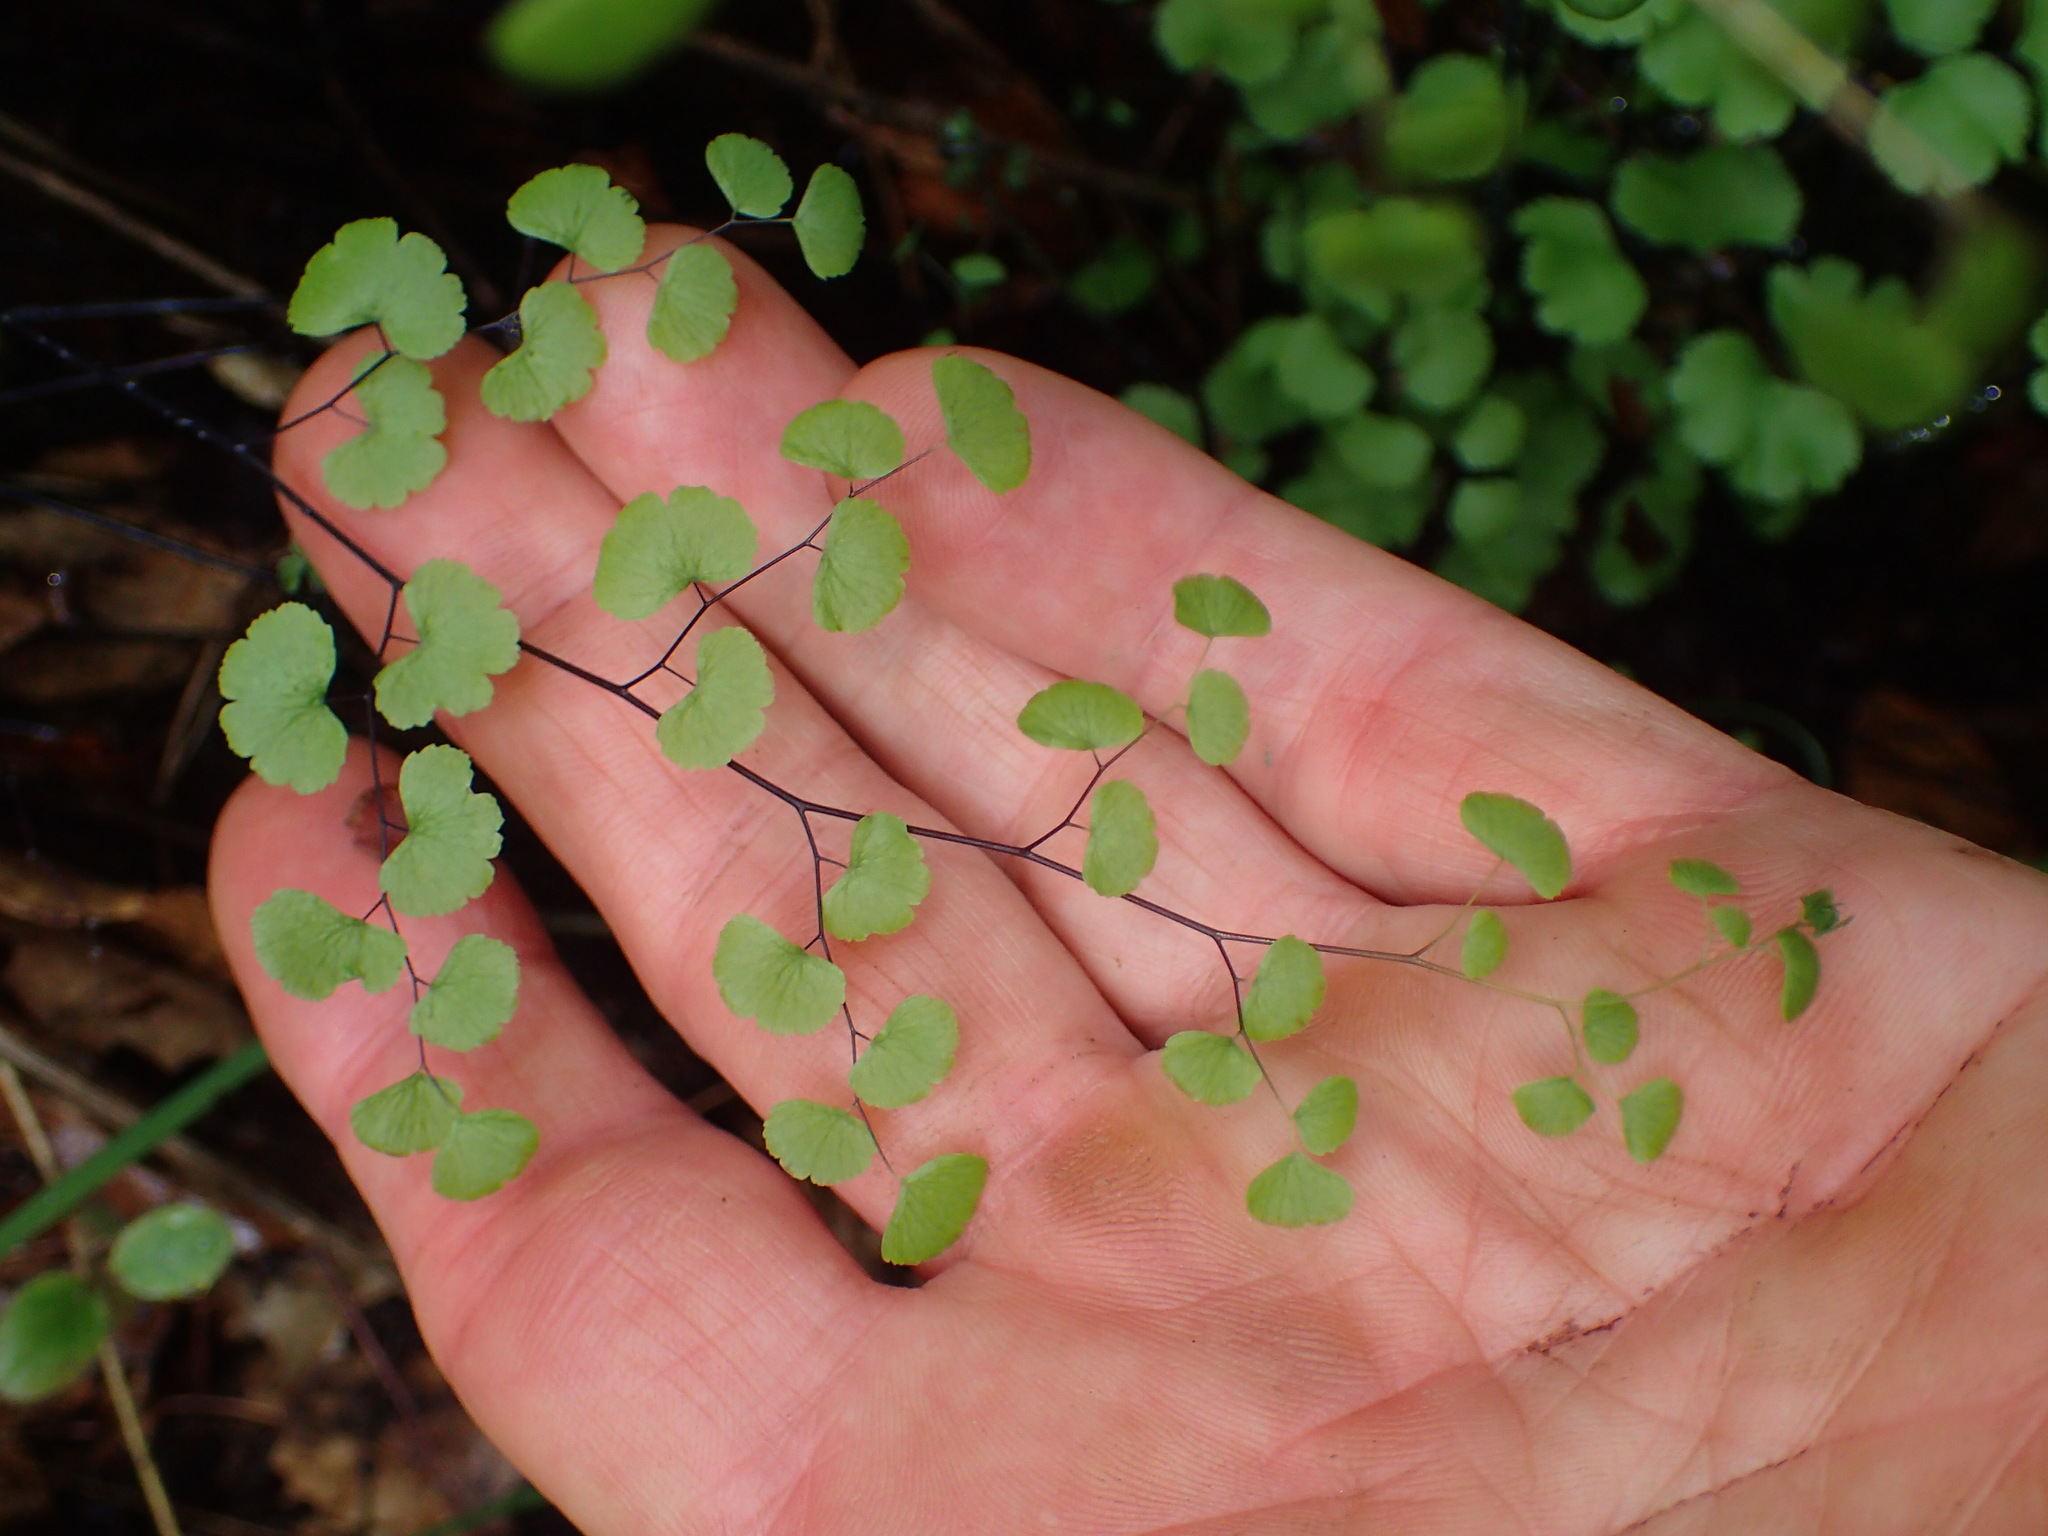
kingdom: Plantae
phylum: Tracheophyta
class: Polypodiopsida
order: Polypodiales
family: Pteridaceae
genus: Adiantum
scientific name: Adiantum jordanii
